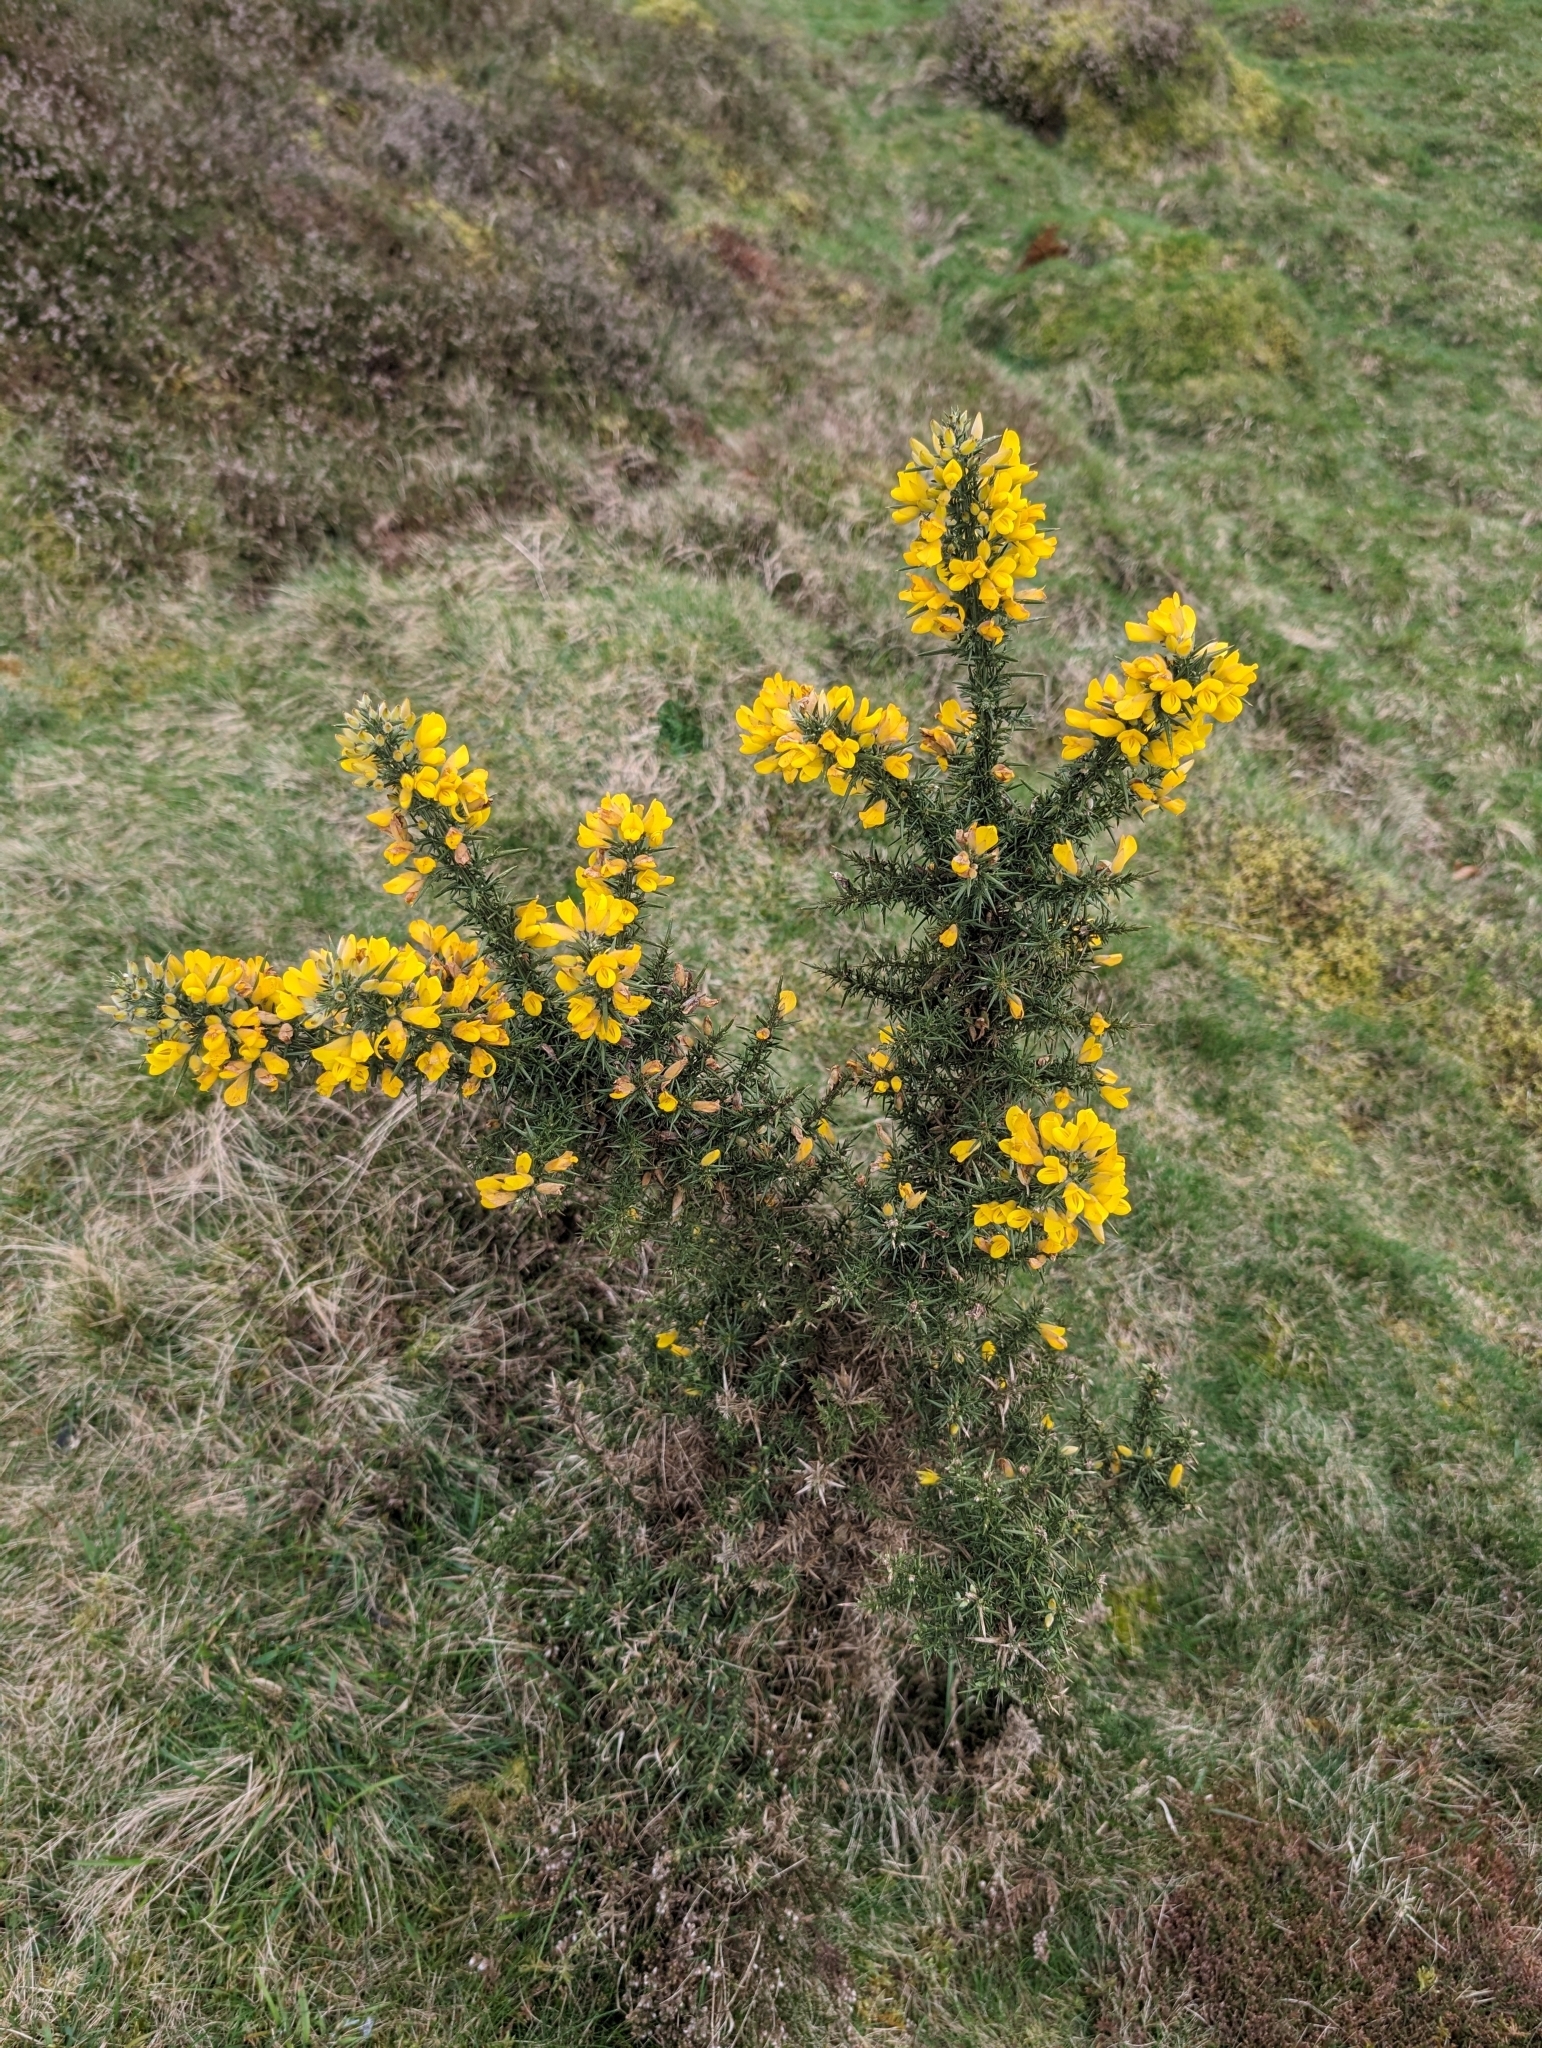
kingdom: Plantae
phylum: Tracheophyta
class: Magnoliopsida
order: Fabales
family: Fabaceae
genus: Ulex
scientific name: Ulex europaeus
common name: Common gorse
